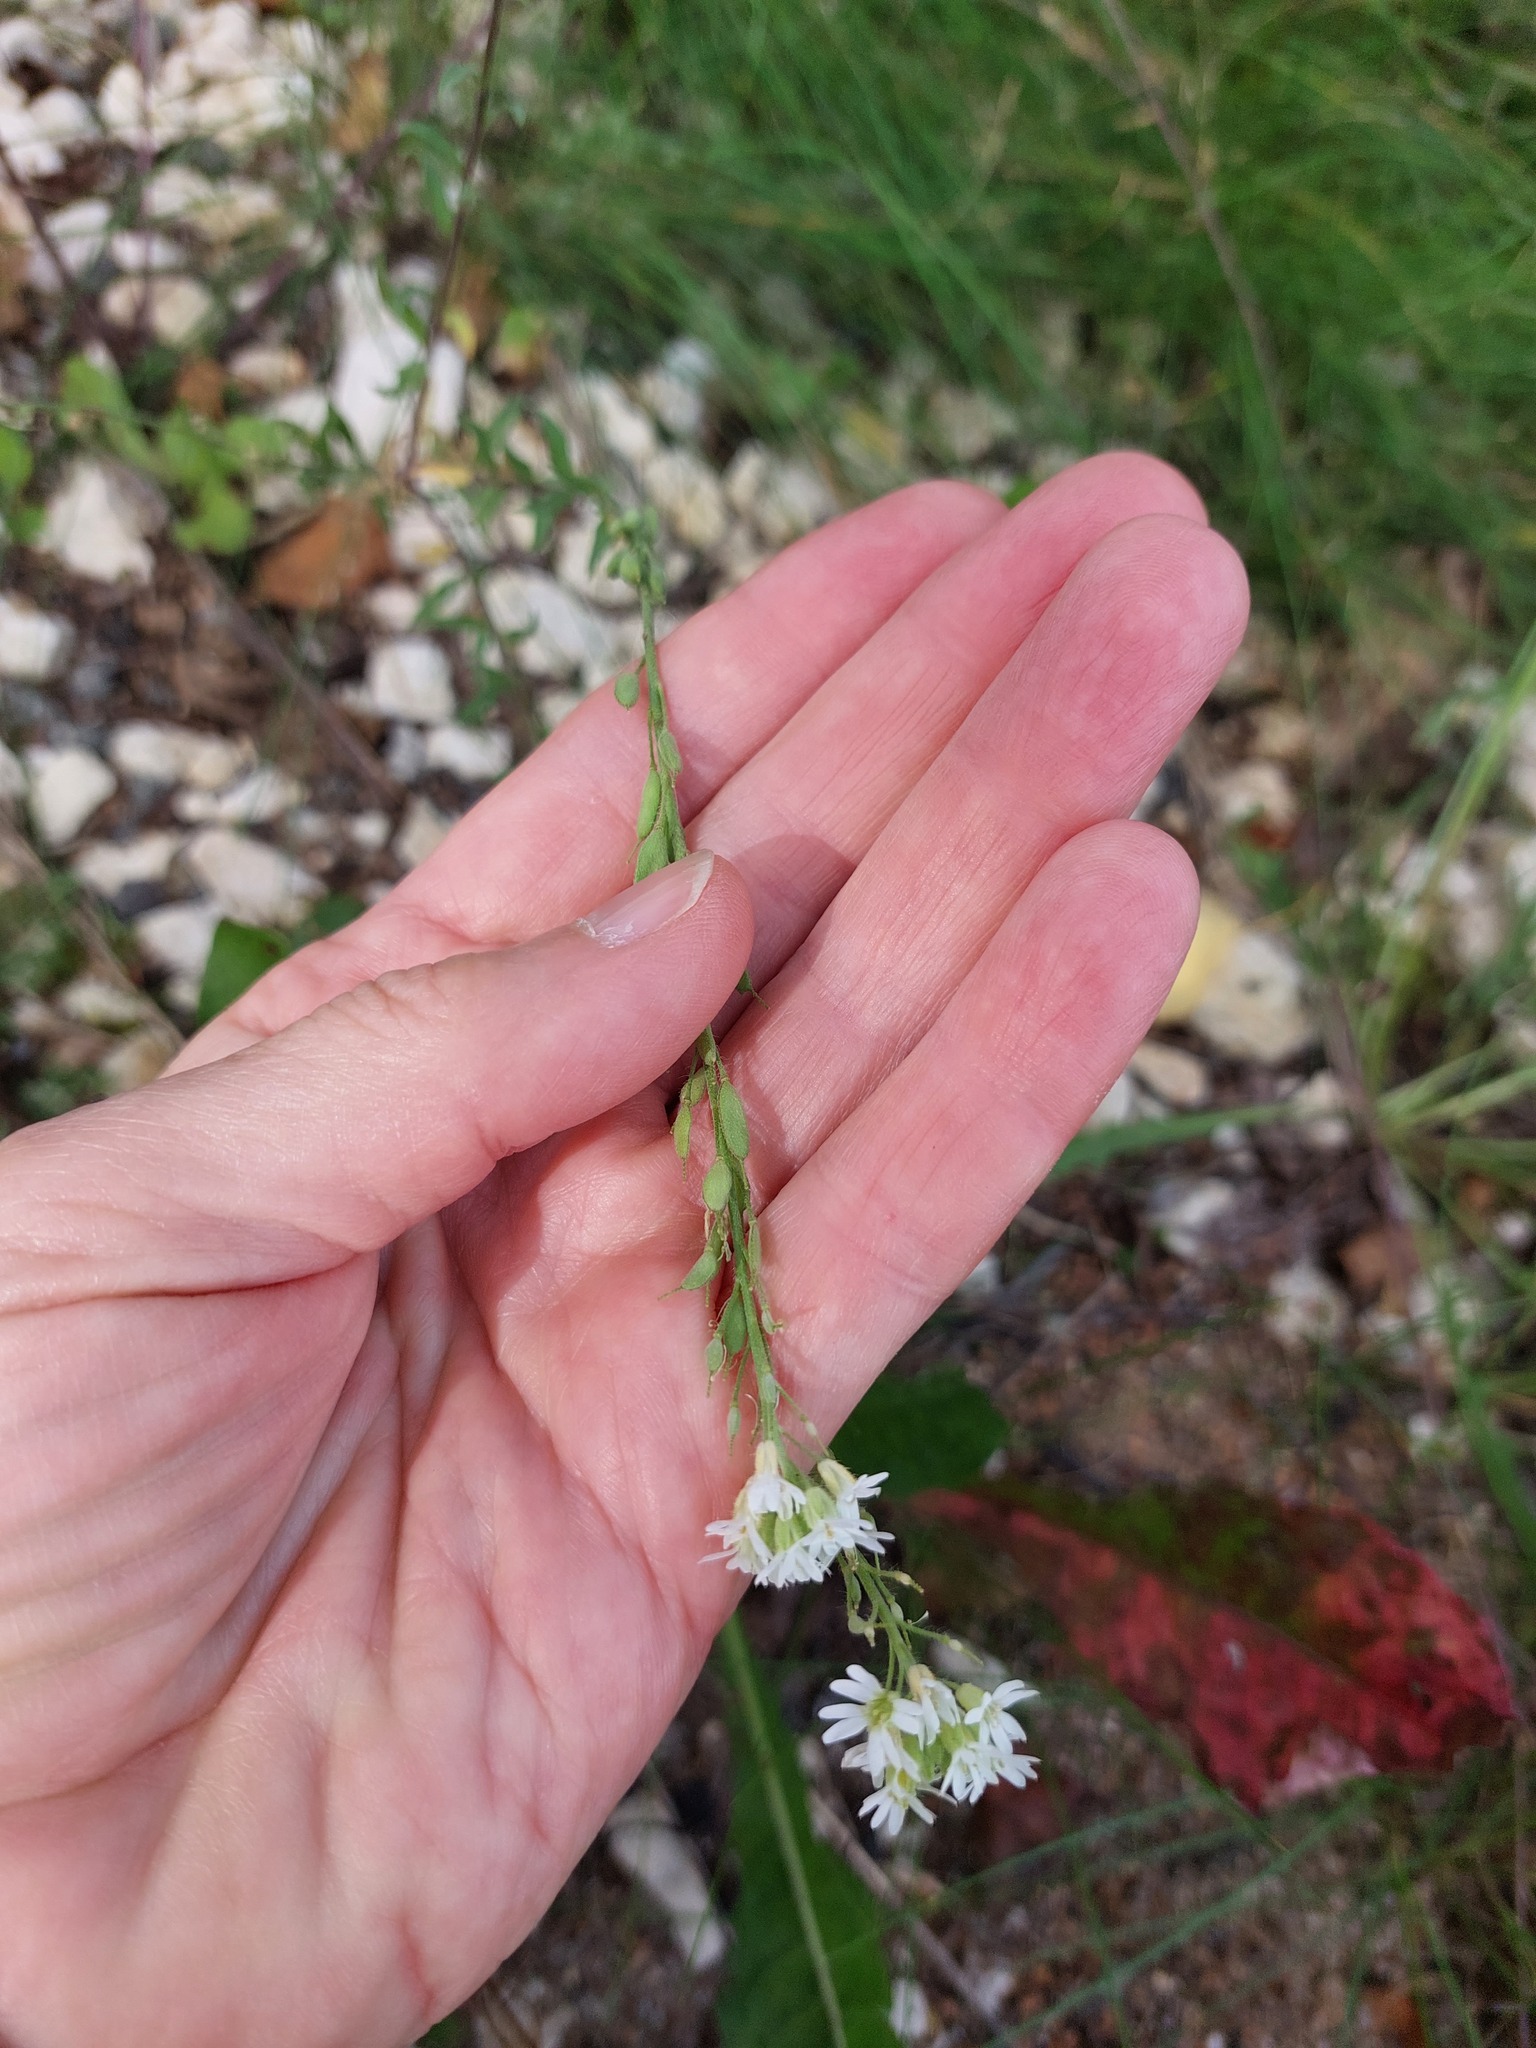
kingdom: Plantae
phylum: Tracheophyta
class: Magnoliopsida
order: Brassicales
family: Brassicaceae
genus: Berteroa
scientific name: Berteroa incana
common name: Hoary alison
